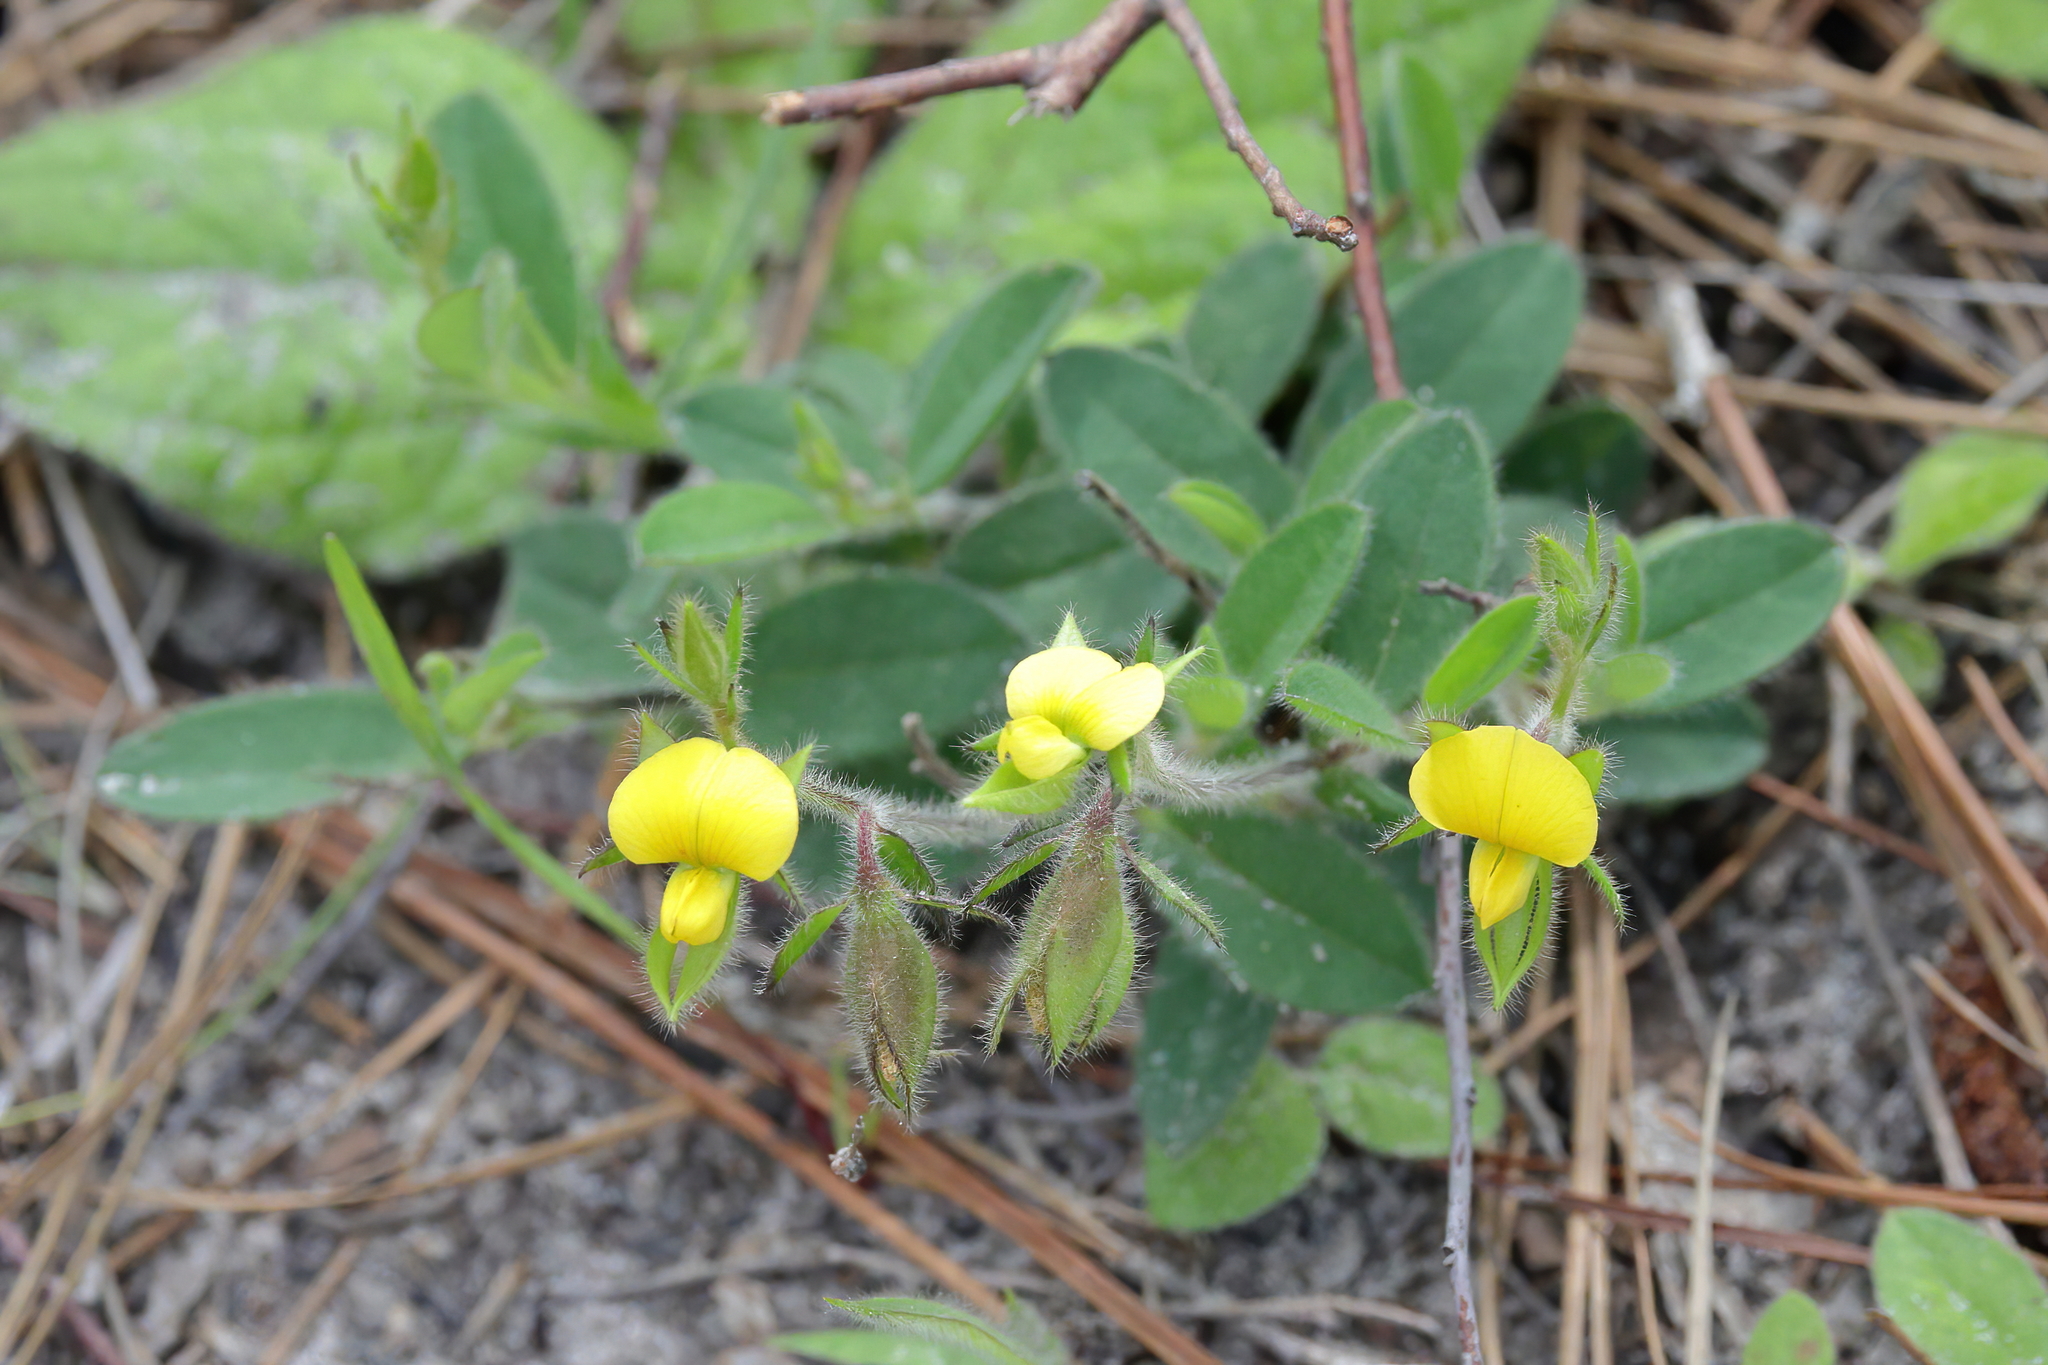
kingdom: Plantae
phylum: Tracheophyta
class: Magnoliopsida
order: Fabales
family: Fabaceae
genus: Crotalaria
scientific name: Crotalaria rotundifolia
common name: Prostrate rattlebox
